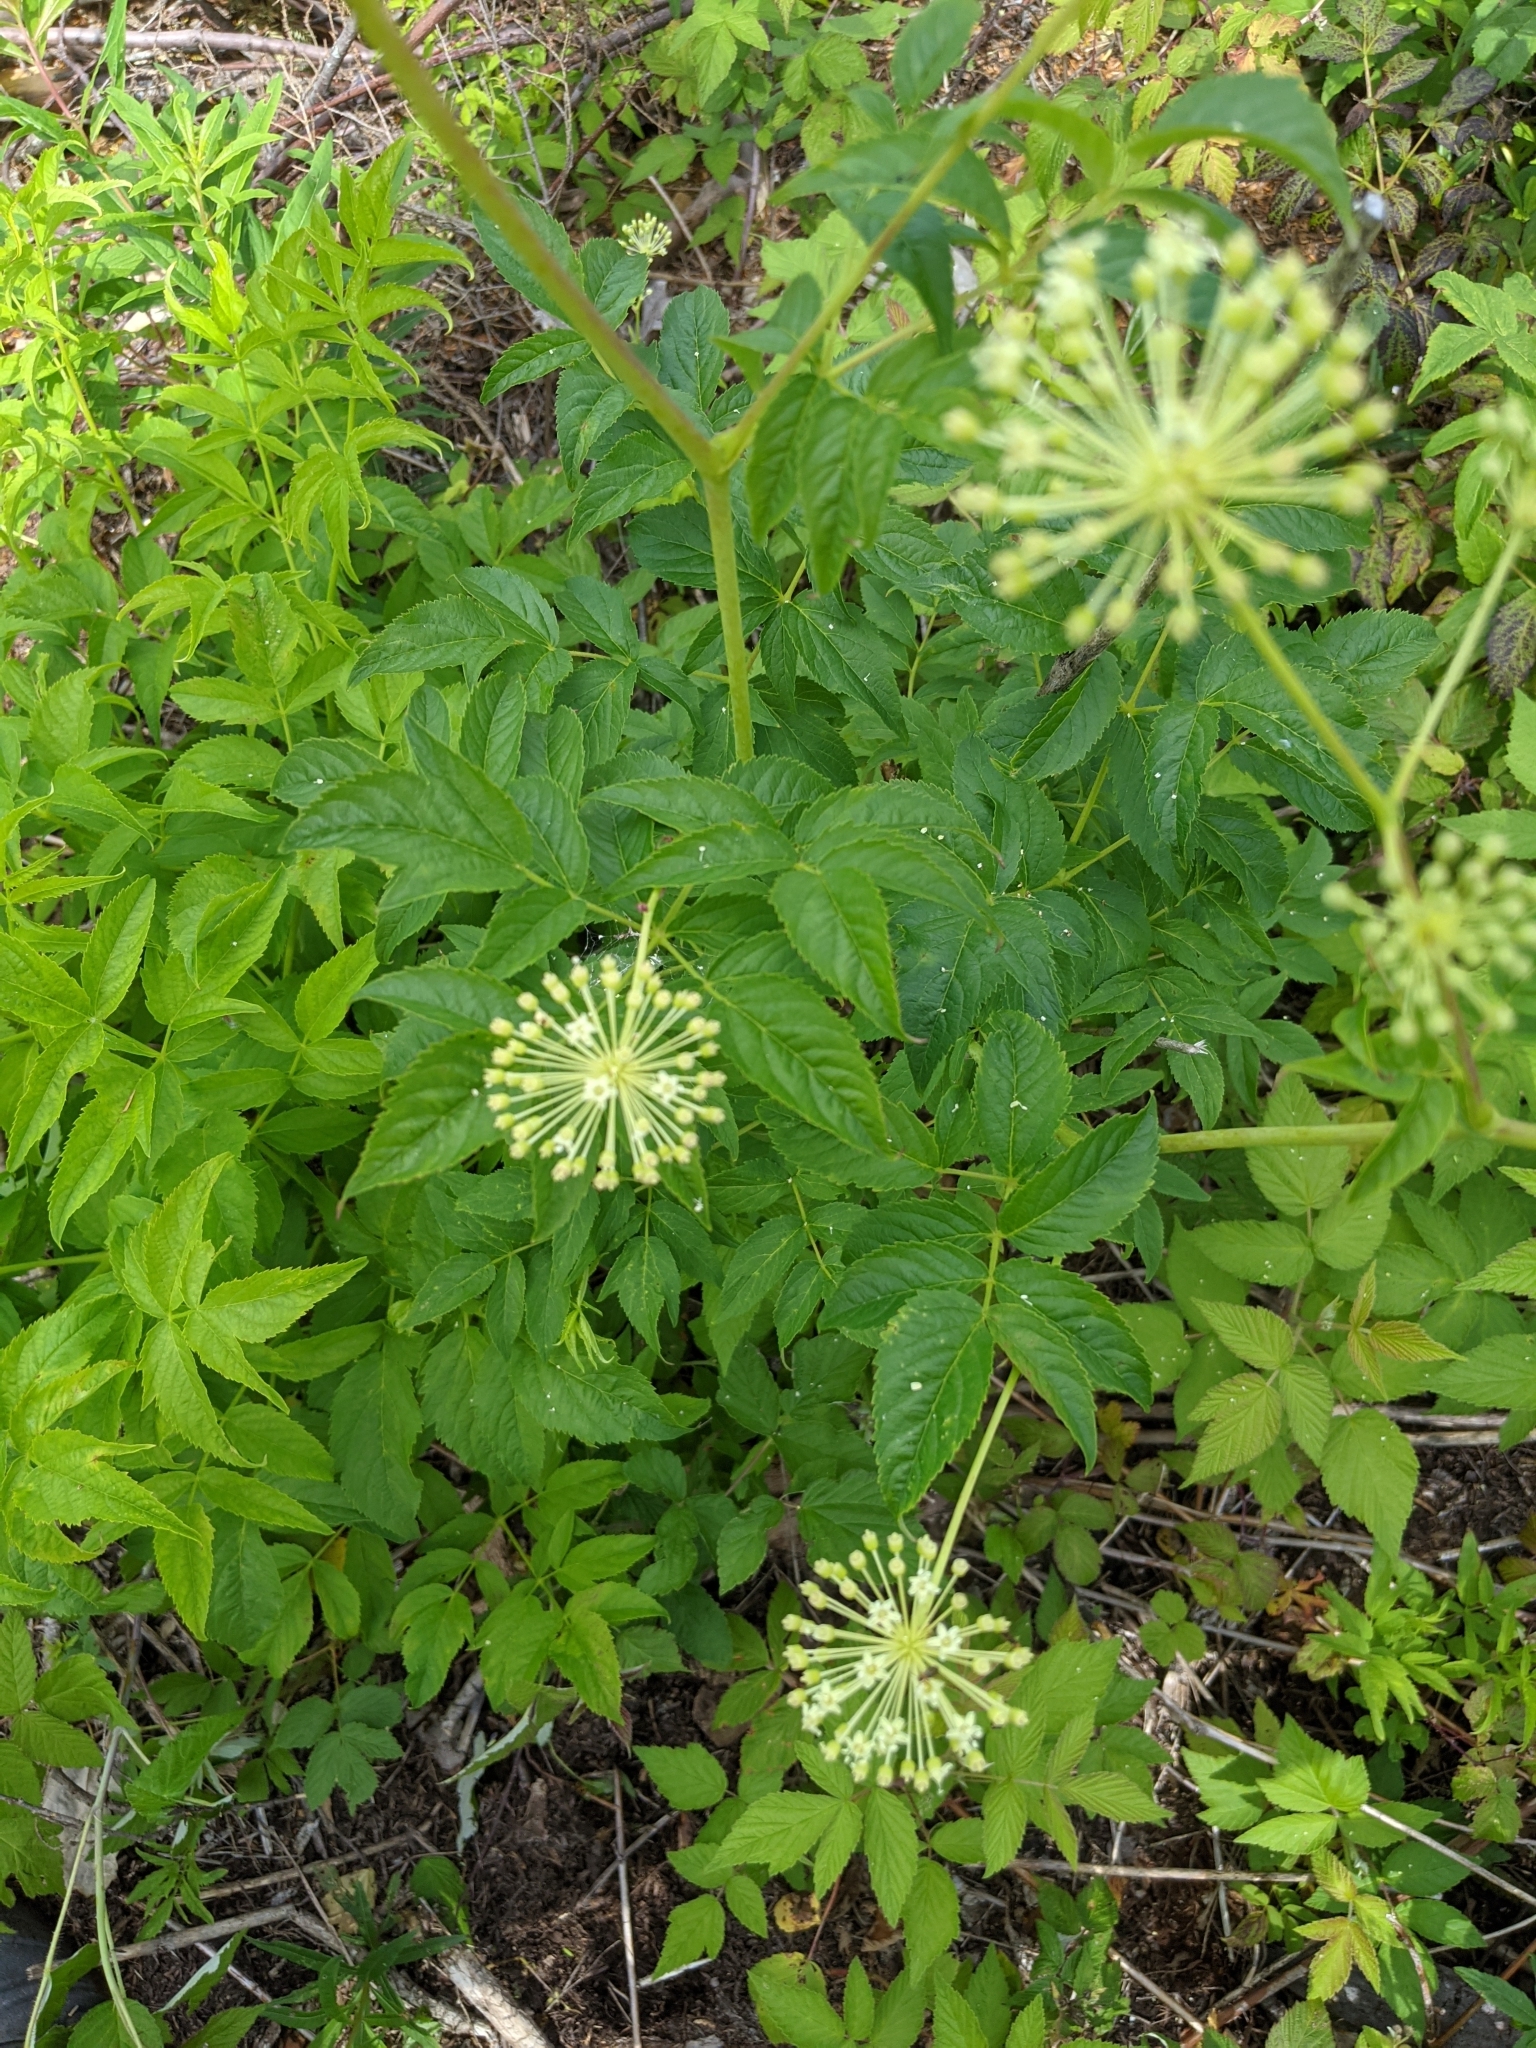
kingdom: Plantae
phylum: Tracheophyta
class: Magnoliopsida
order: Apiales
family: Araliaceae
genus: Aralia
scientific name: Aralia hispida
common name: Bristly sarsaparilla
